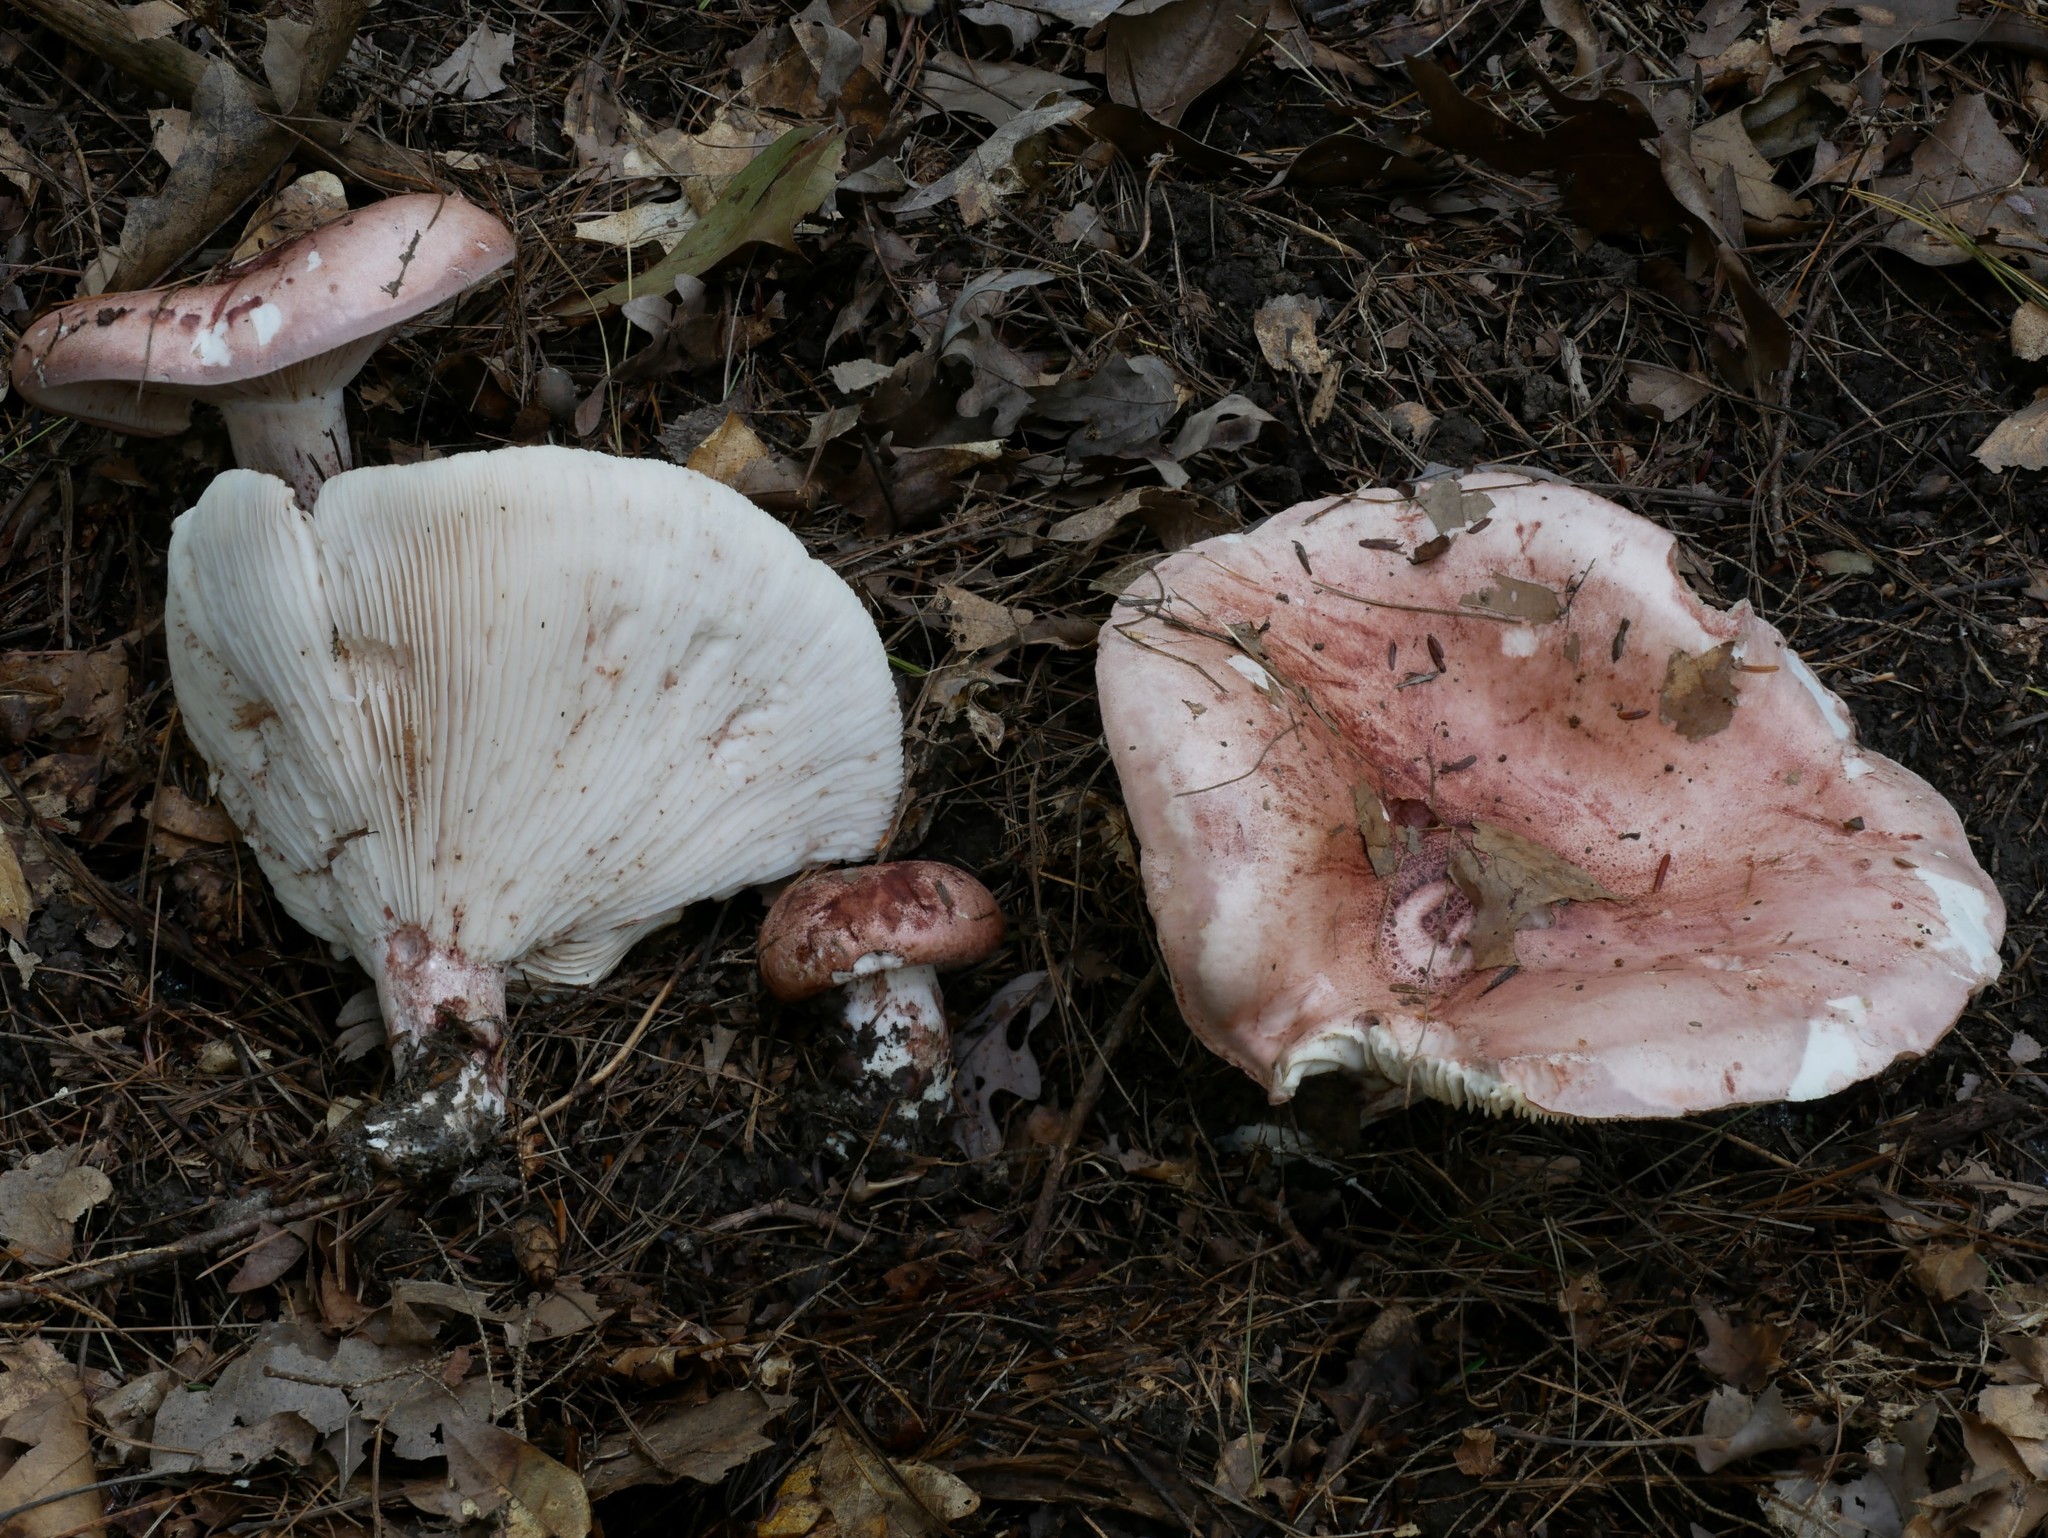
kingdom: Fungi
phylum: Basidiomycota
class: Agaricomycetes
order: Agaricales
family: Hygrophoraceae
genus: Hygrophorus
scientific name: Hygrophorus russula
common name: Pinkmottle woodwax
